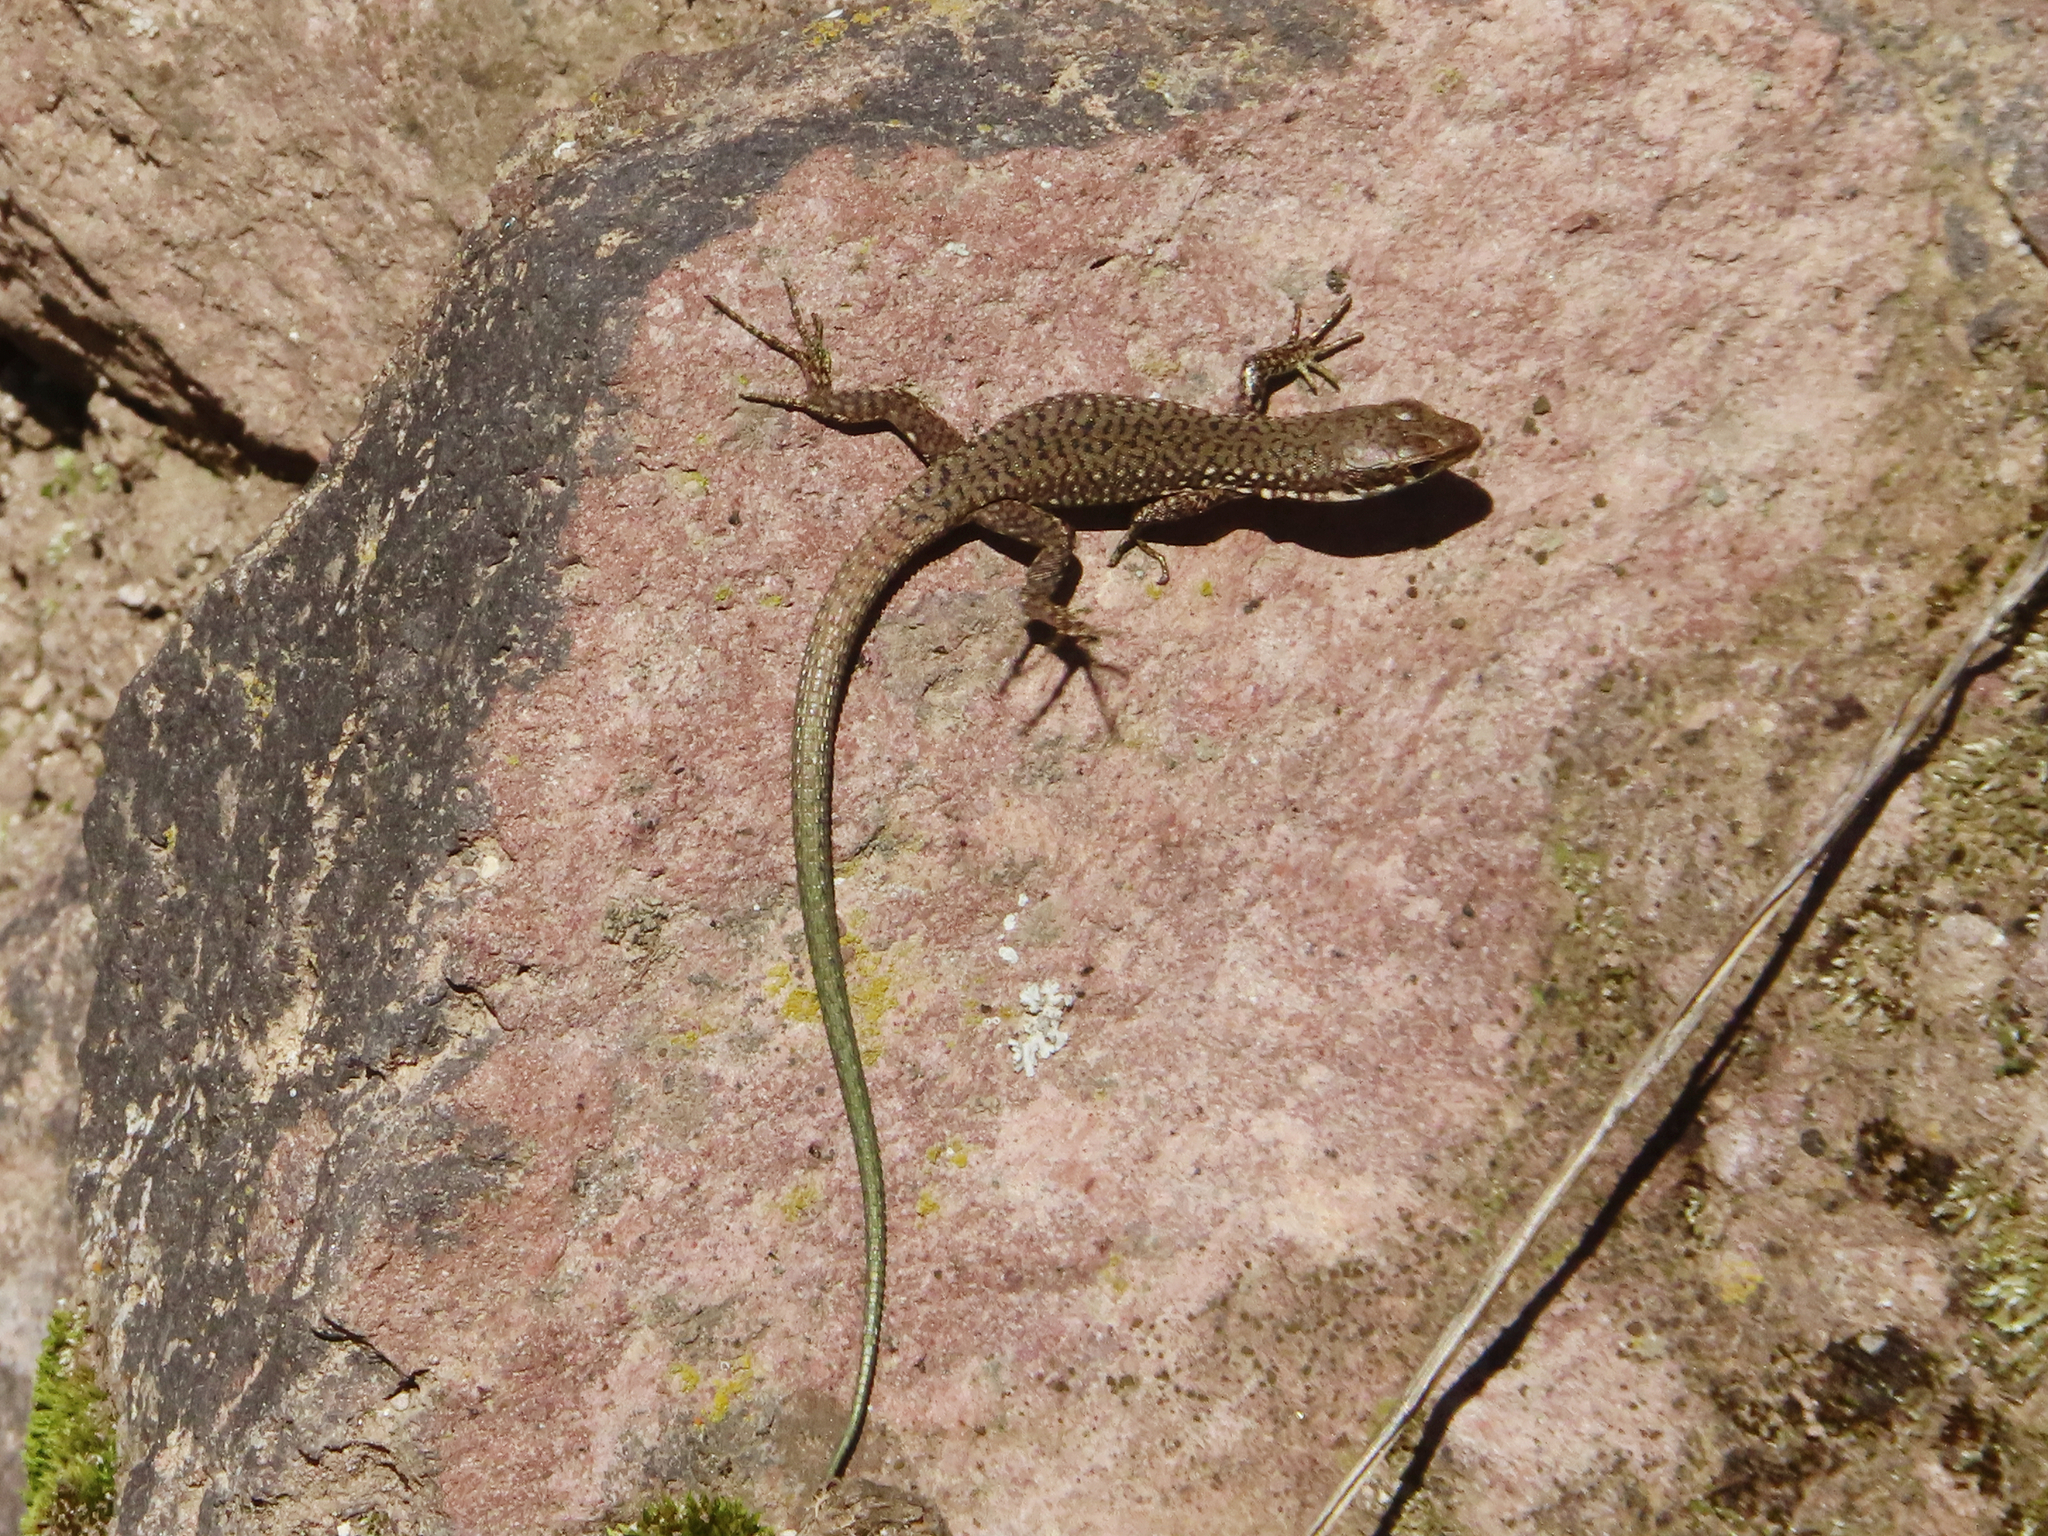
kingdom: Animalia
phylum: Chordata
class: Squamata
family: Lacertidae
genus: Darevskia
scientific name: Darevskia raddei
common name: Radde's lizard
